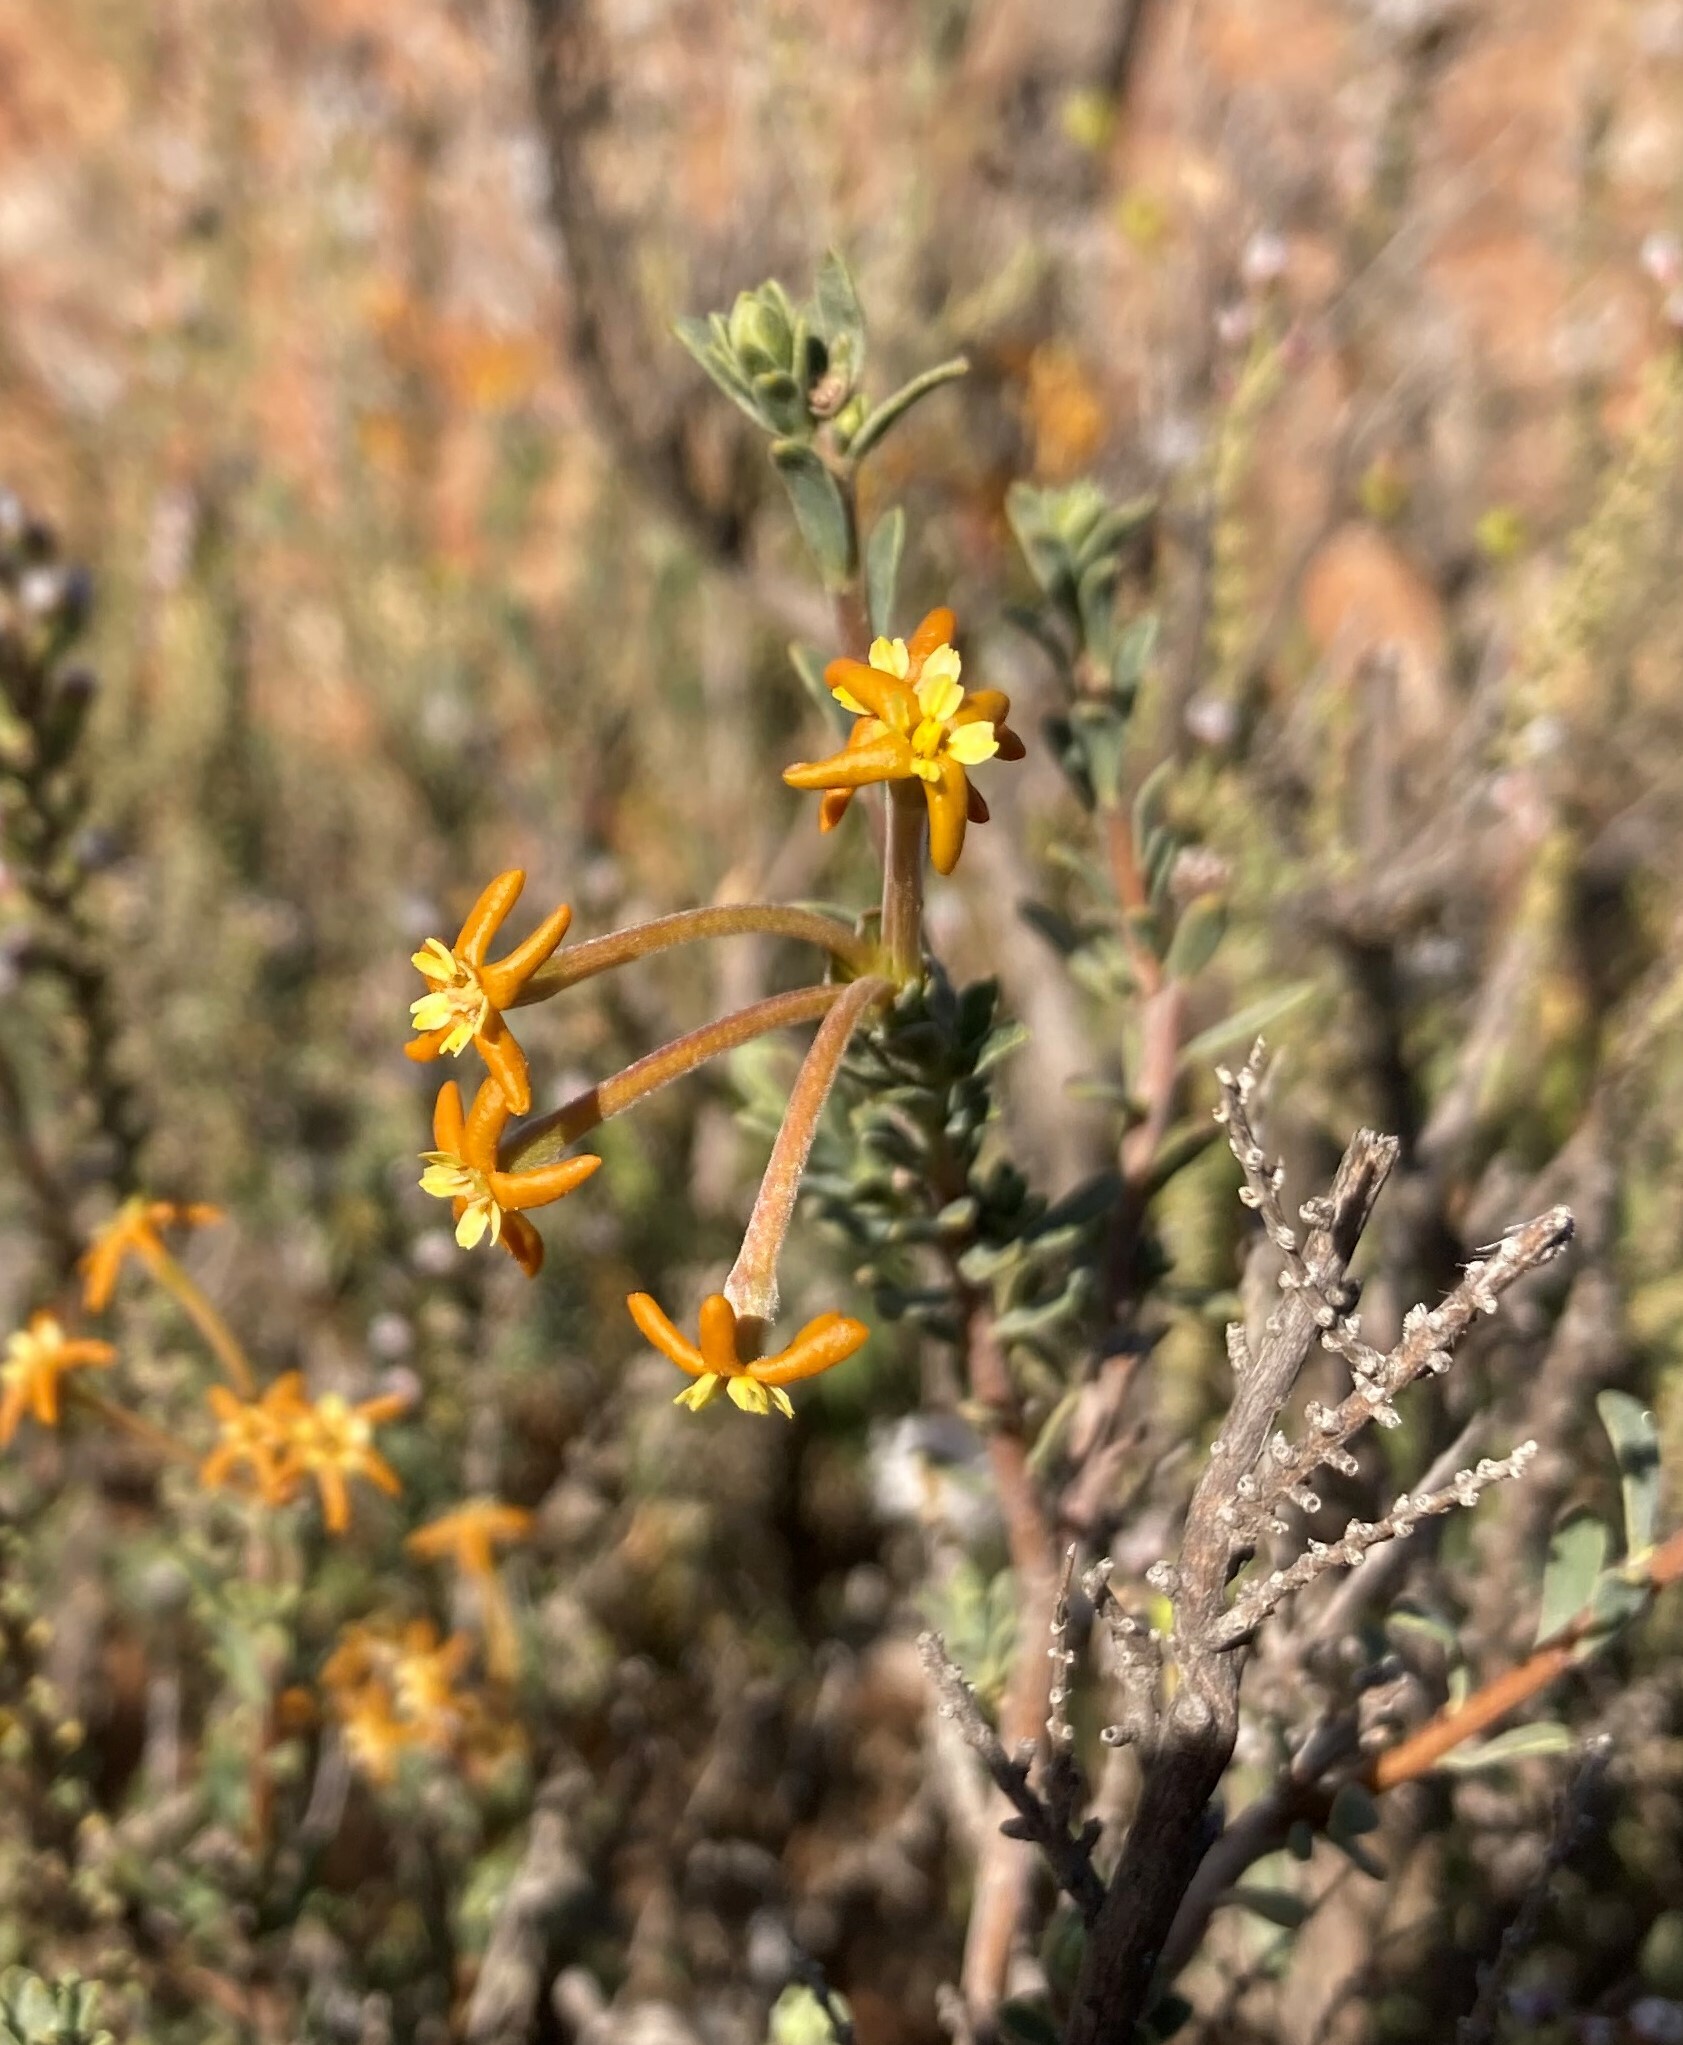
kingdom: Plantae
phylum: Tracheophyta
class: Magnoliopsida
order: Malvales
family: Thymelaeaceae
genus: Gnidia
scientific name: Gnidia deserticola
